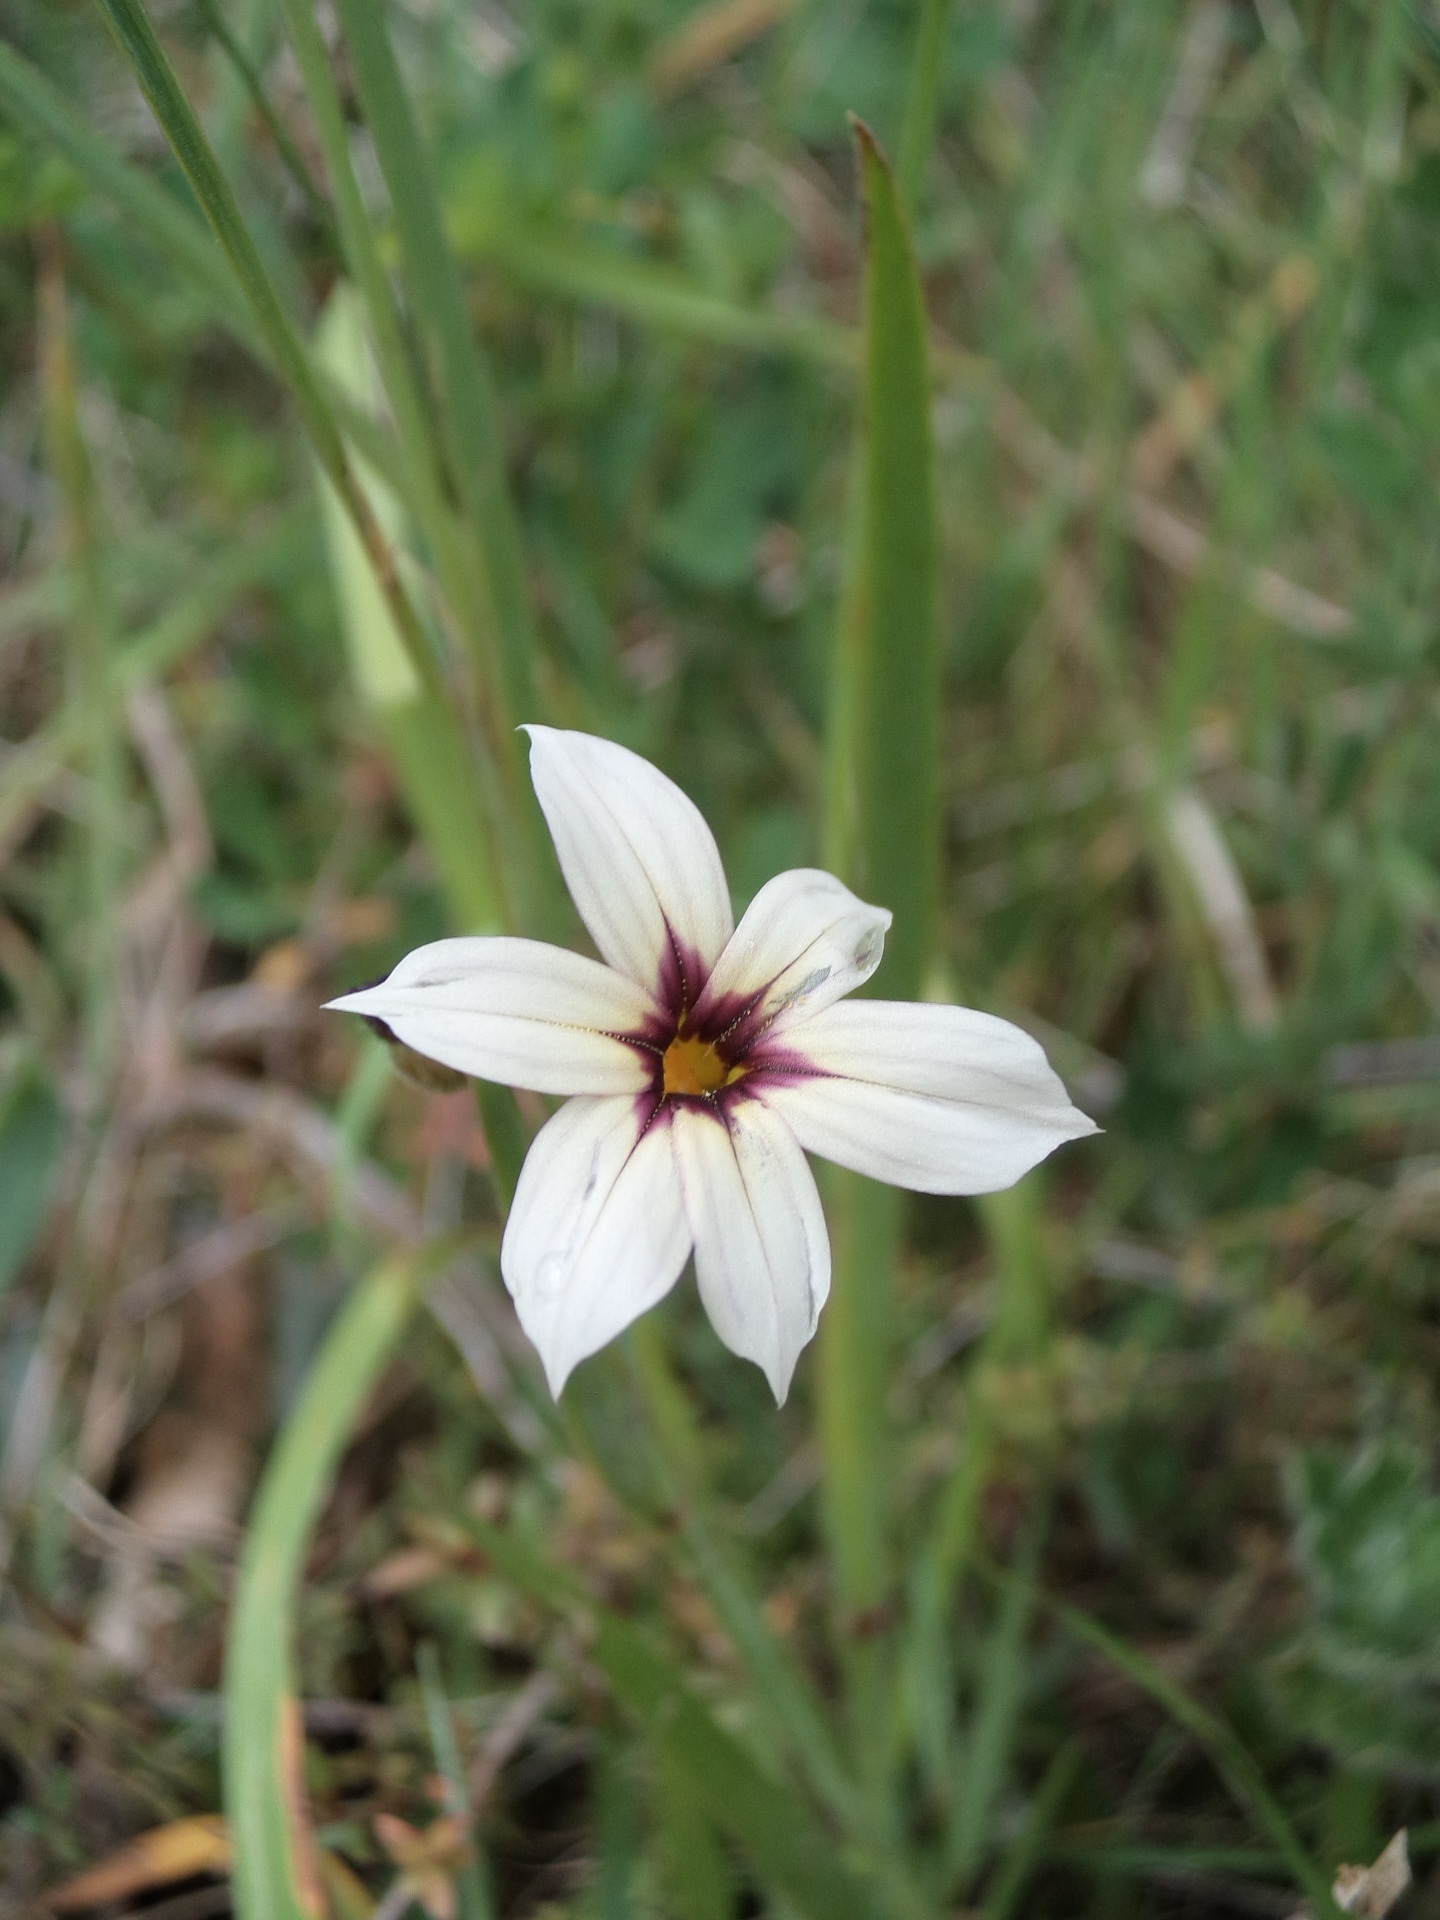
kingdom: Plantae
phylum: Tracheophyta
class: Liliopsida
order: Asparagales
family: Iridaceae
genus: Sisyrinchium
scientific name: Sisyrinchium micranthum
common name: Bermuda pigroot
